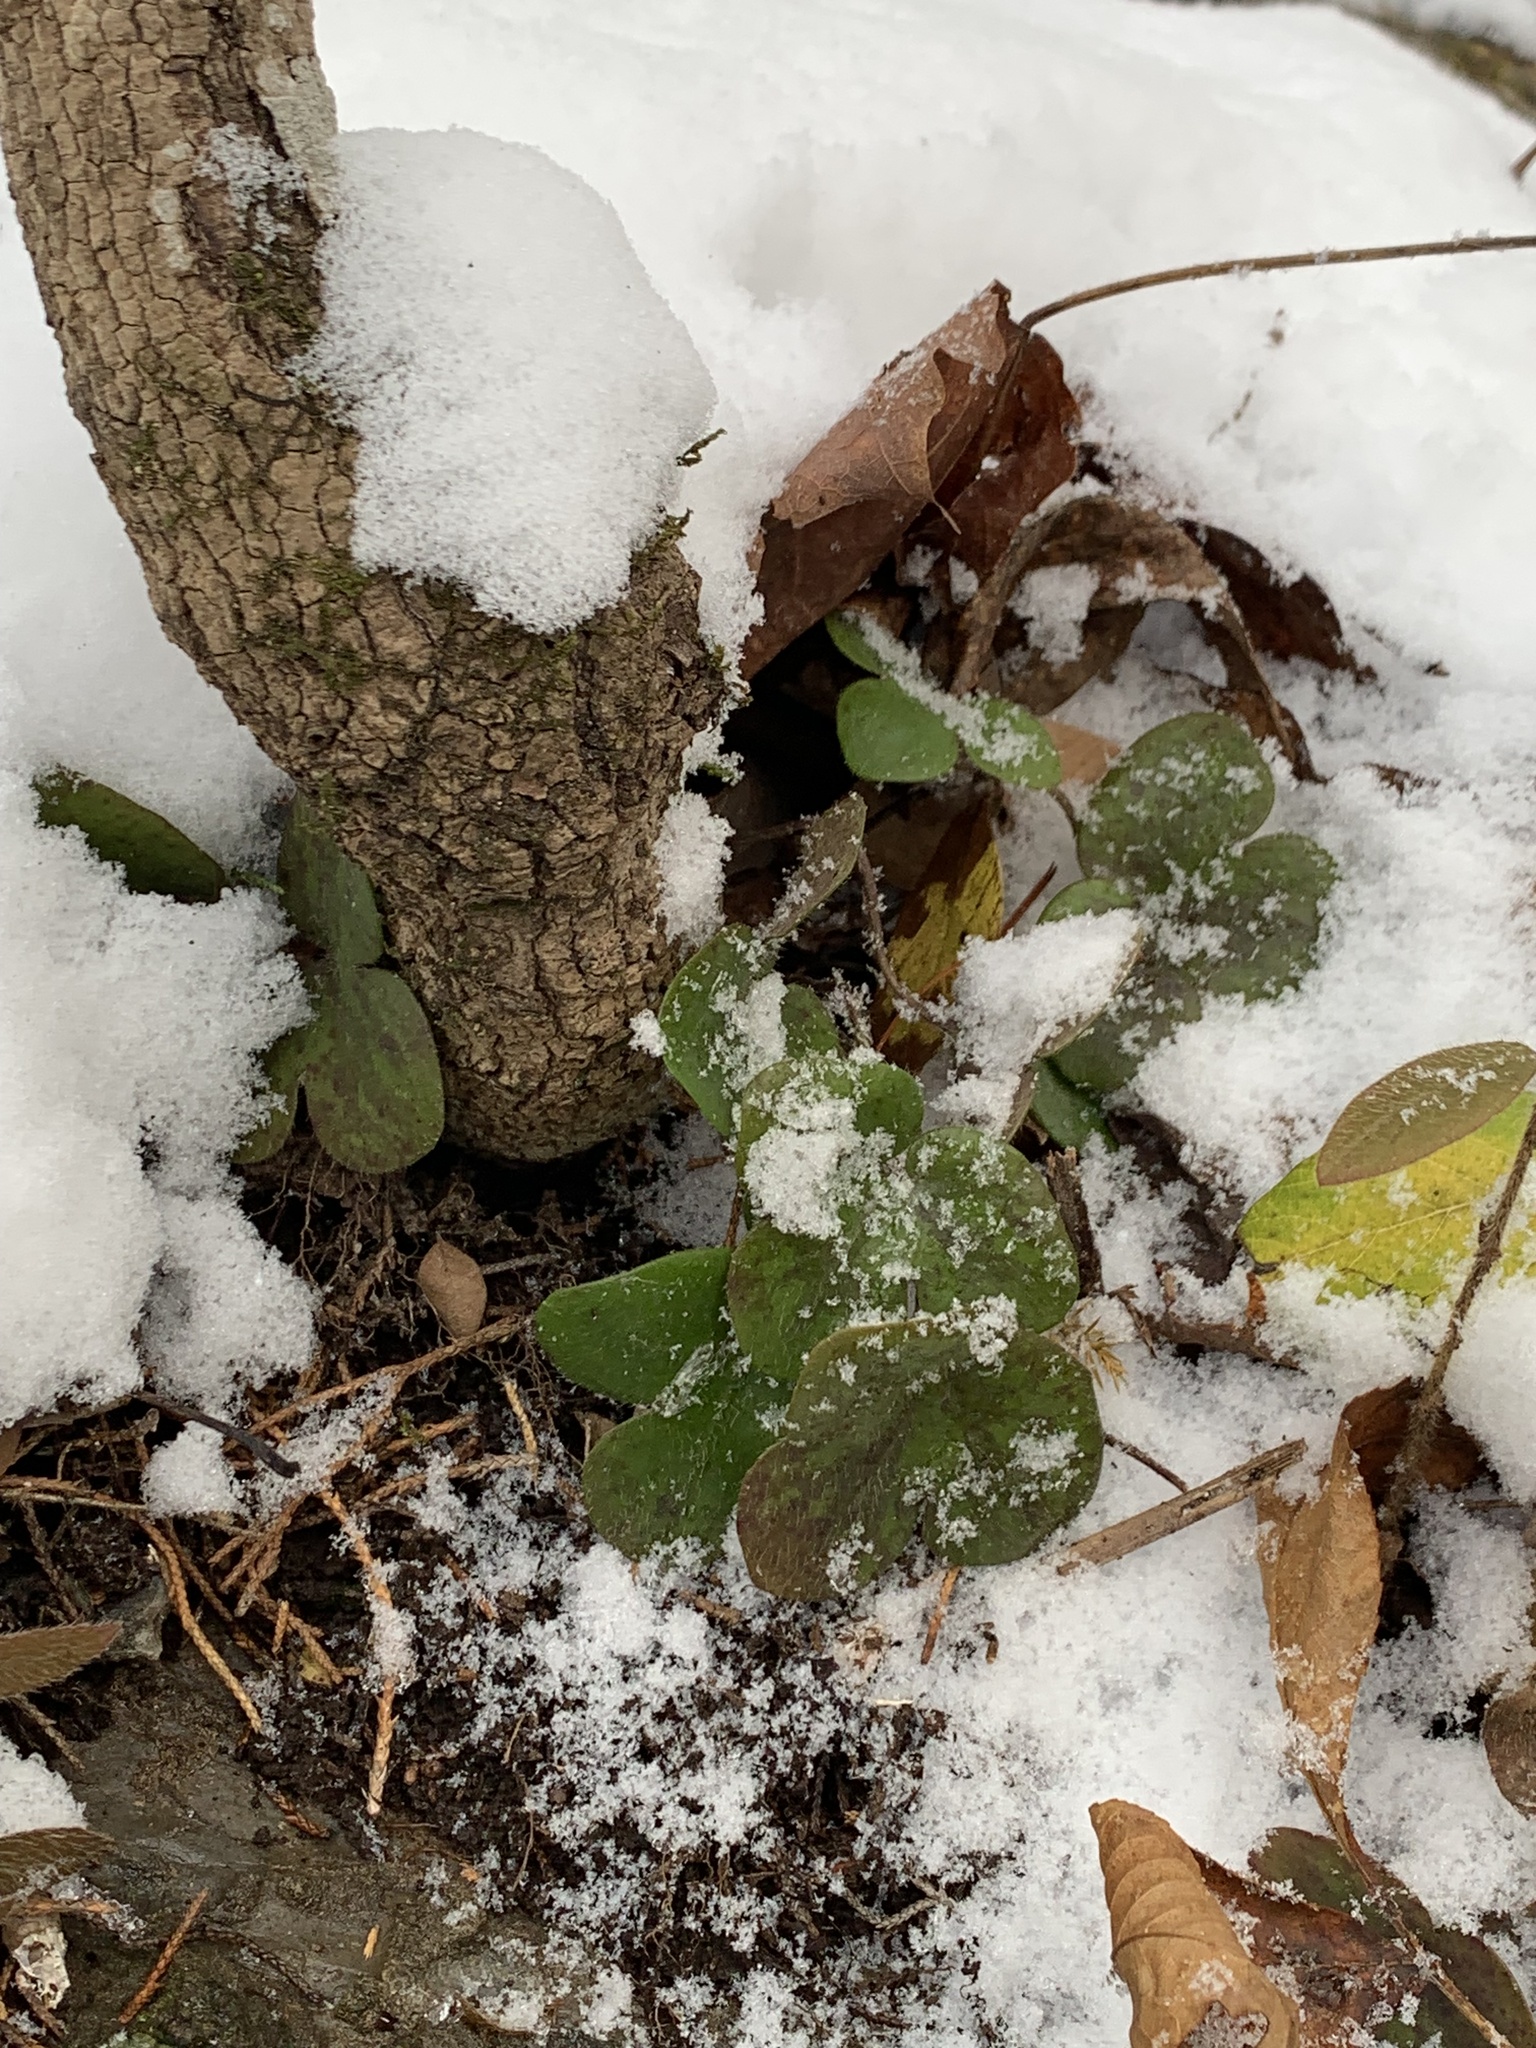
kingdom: Plantae
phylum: Tracheophyta
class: Magnoliopsida
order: Ranunculales
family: Ranunculaceae
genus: Hepatica
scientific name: Hepatica americana
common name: American hepatica
